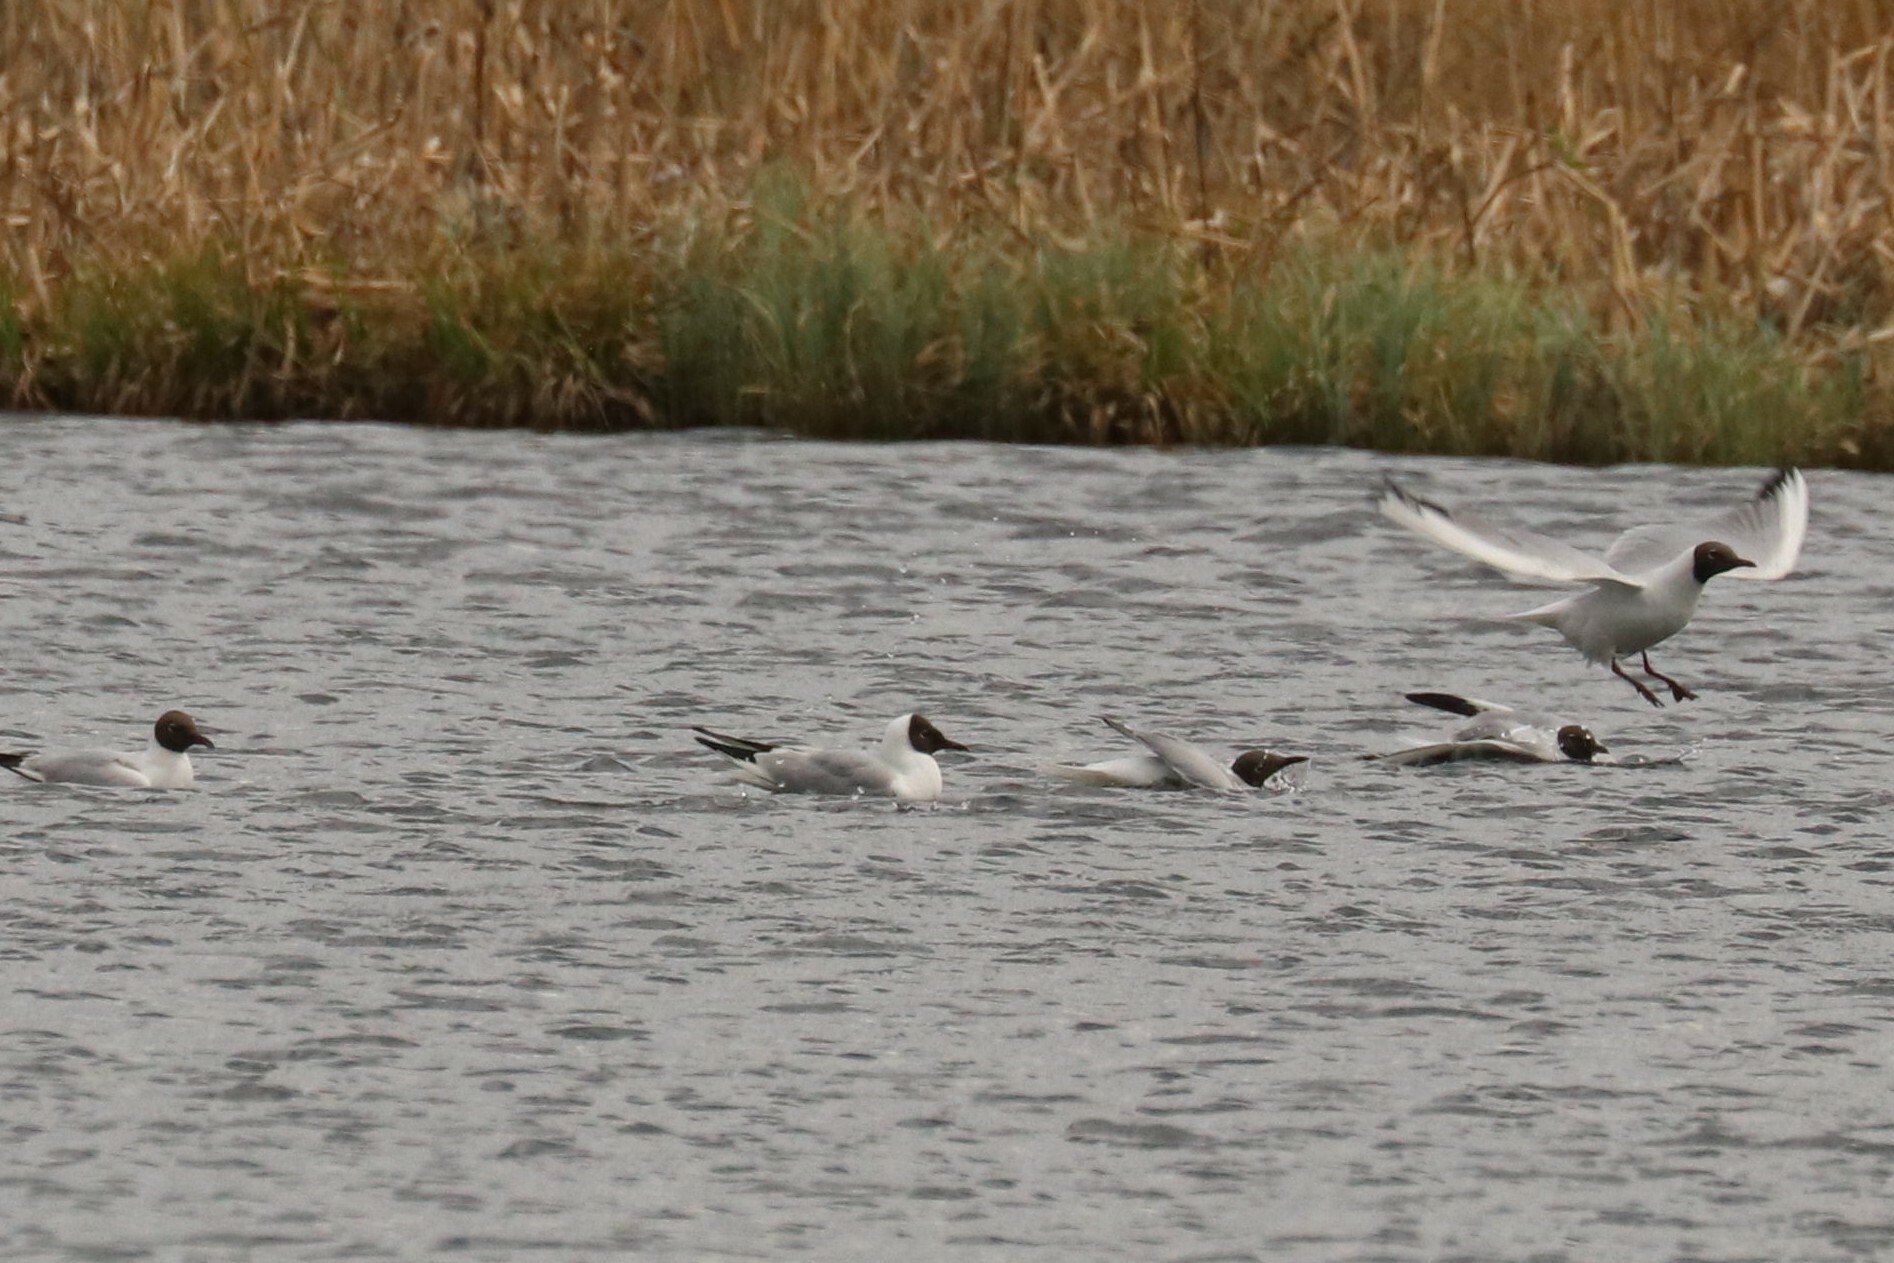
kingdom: Animalia
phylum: Chordata
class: Aves
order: Charadriiformes
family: Laridae
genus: Chroicocephalus
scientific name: Chroicocephalus ridibundus
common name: Black-headed gull
